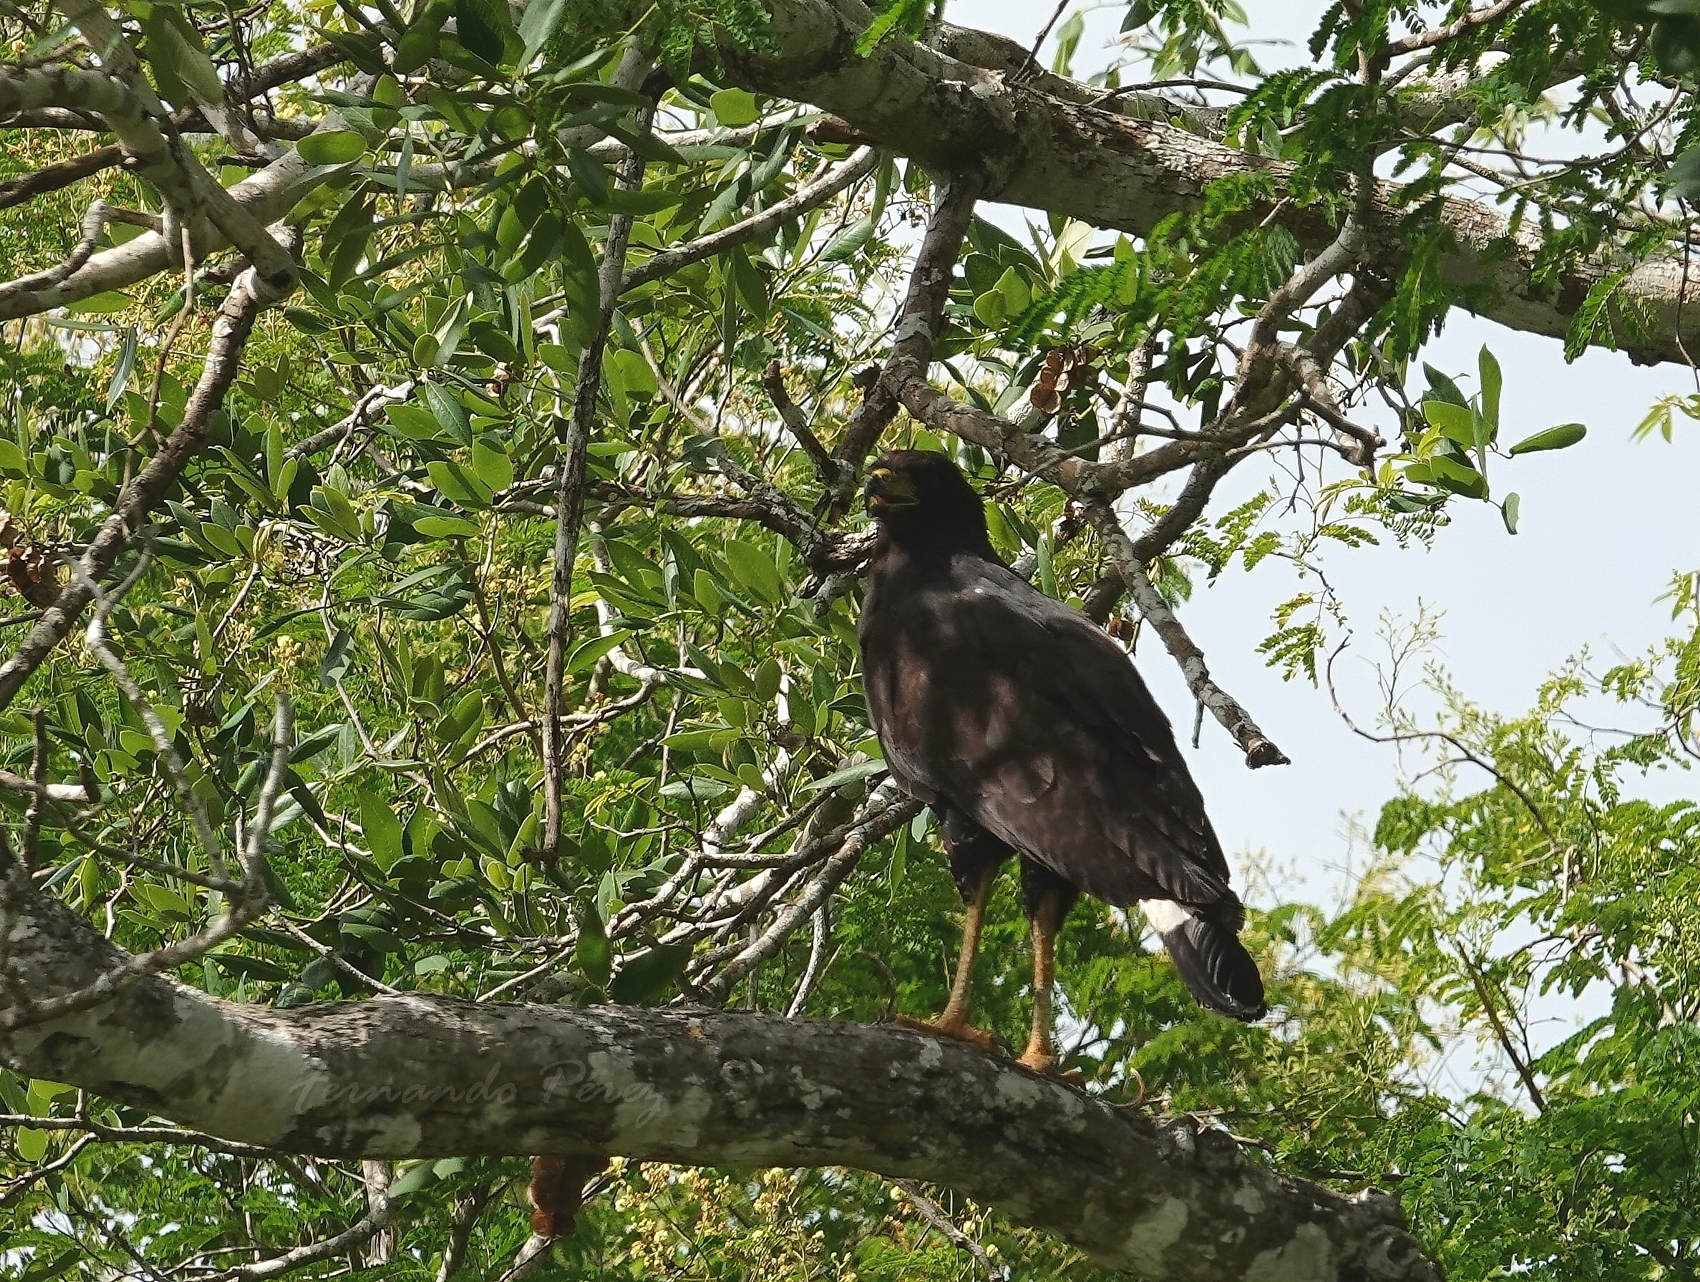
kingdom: Animalia
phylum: Chordata
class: Aves
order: Accipitriformes
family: Accipitridae
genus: Buteogallus
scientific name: Buteogallus urubitinga
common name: Great black hawk
